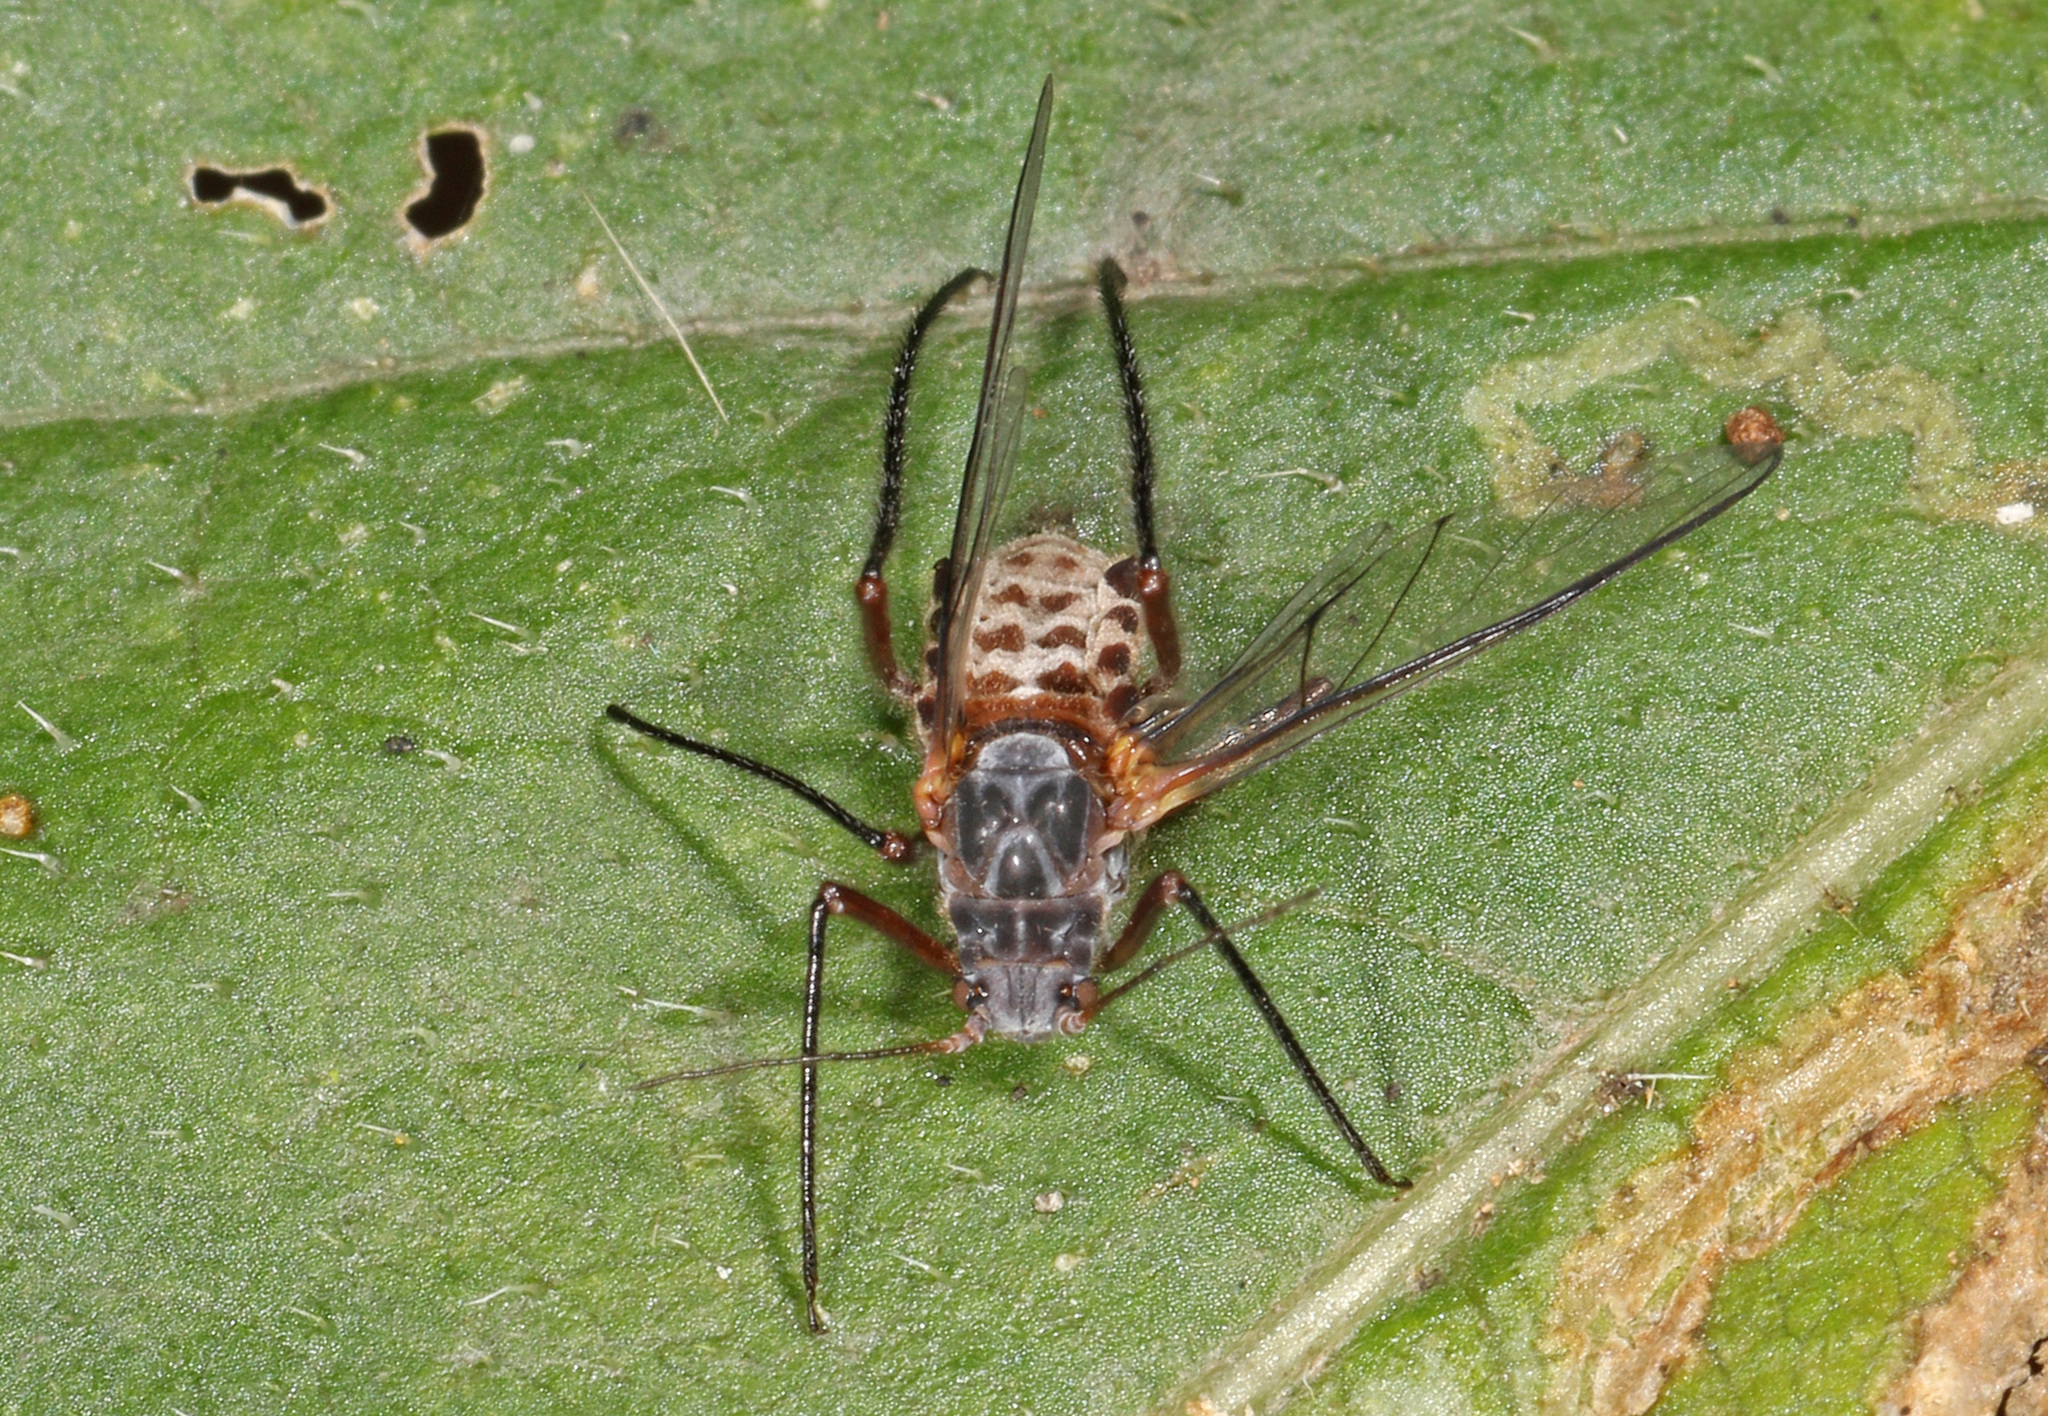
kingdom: Animalia
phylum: Arthropoda
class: Insecta
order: Hemiptera
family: Aphididae
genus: Longistigma
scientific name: Longistigma caryae
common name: Giant bark aphid
